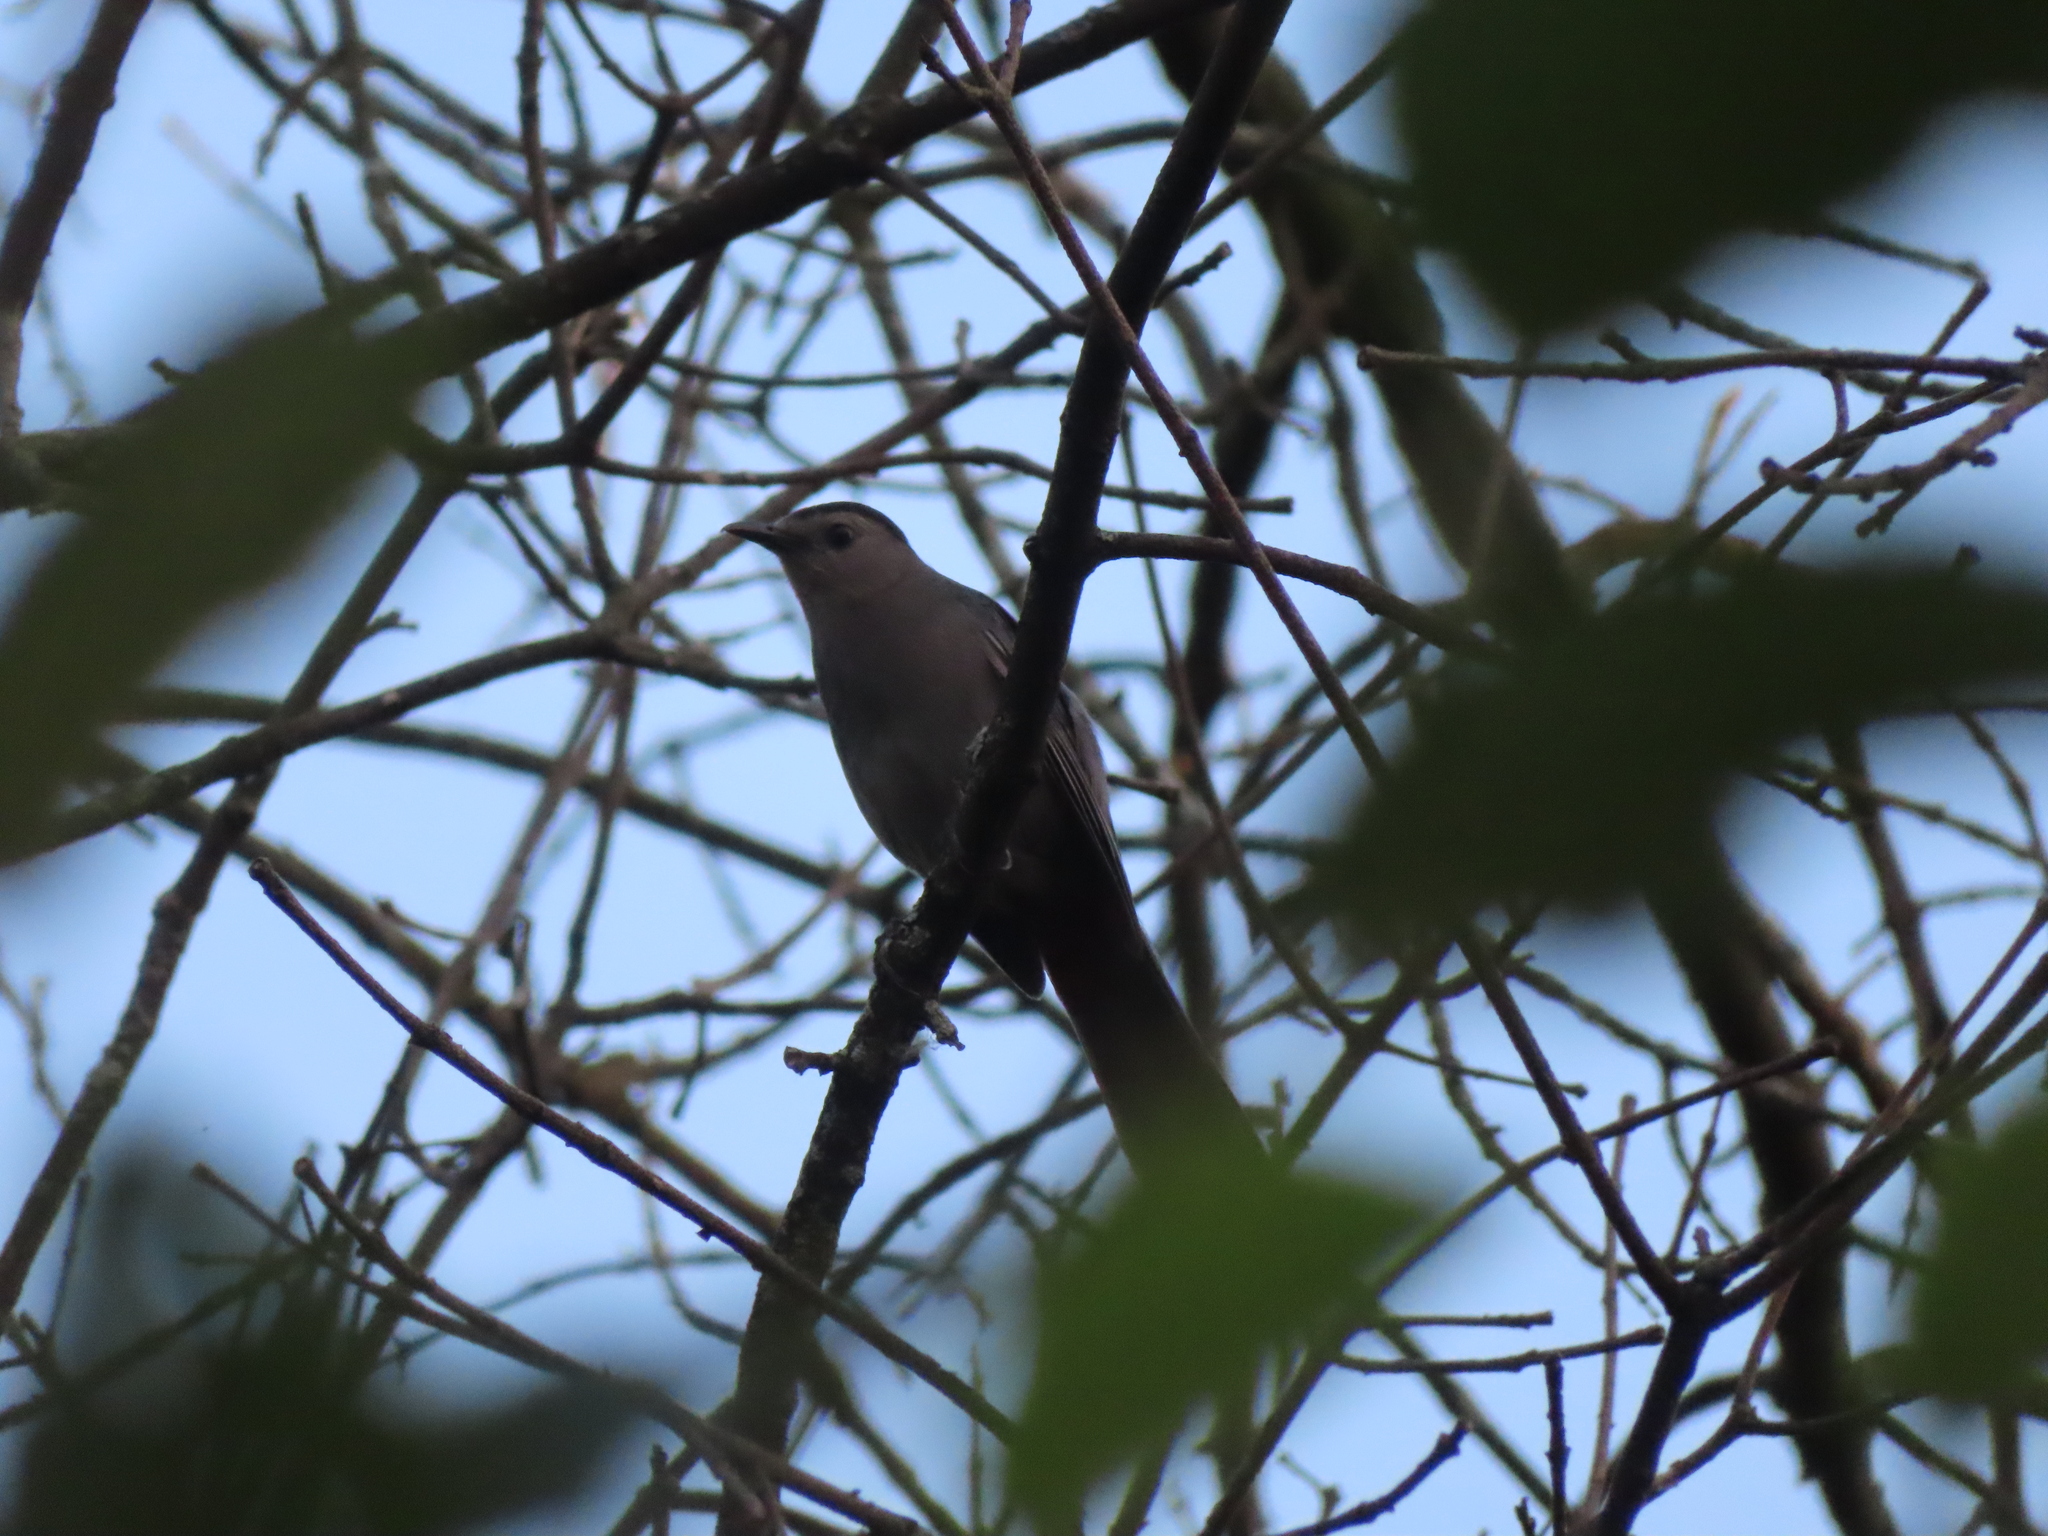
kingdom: Animalia
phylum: Chordata
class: Aves
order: Passeriformes
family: Mimidae
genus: Dumetella
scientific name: Dumetella carolinensis
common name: Gray catbird
